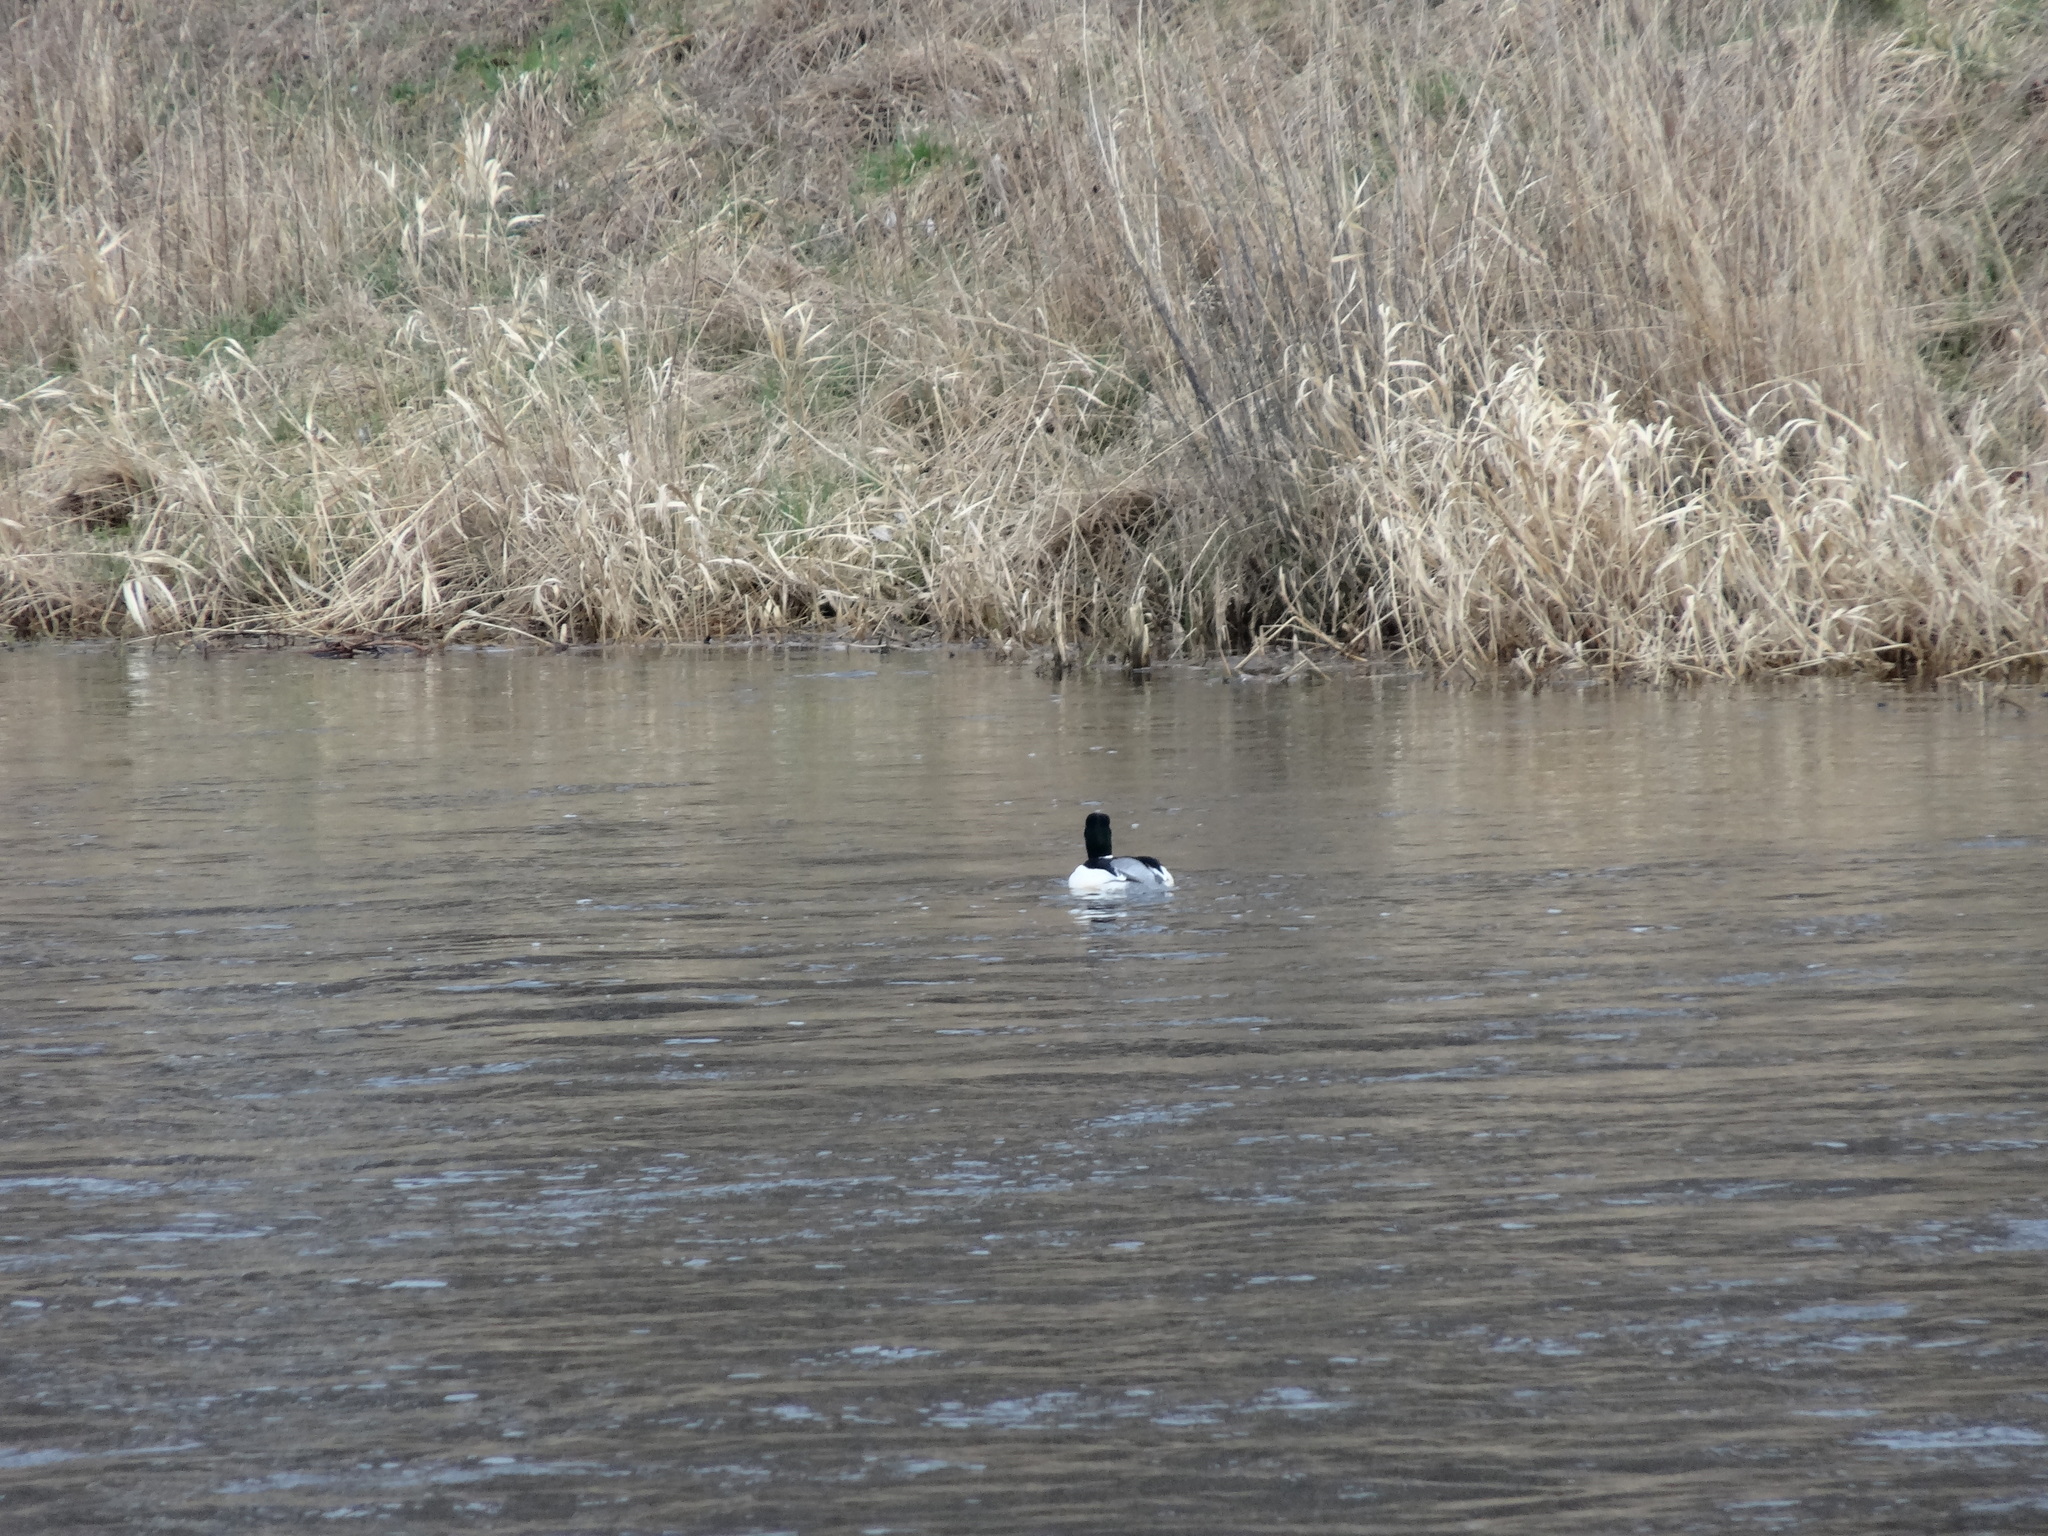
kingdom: Animalia
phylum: Chordata
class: Aves
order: Anseriformes
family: Anatidae
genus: Bucephala
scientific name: Bucephala clangula
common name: Common goldeneye
